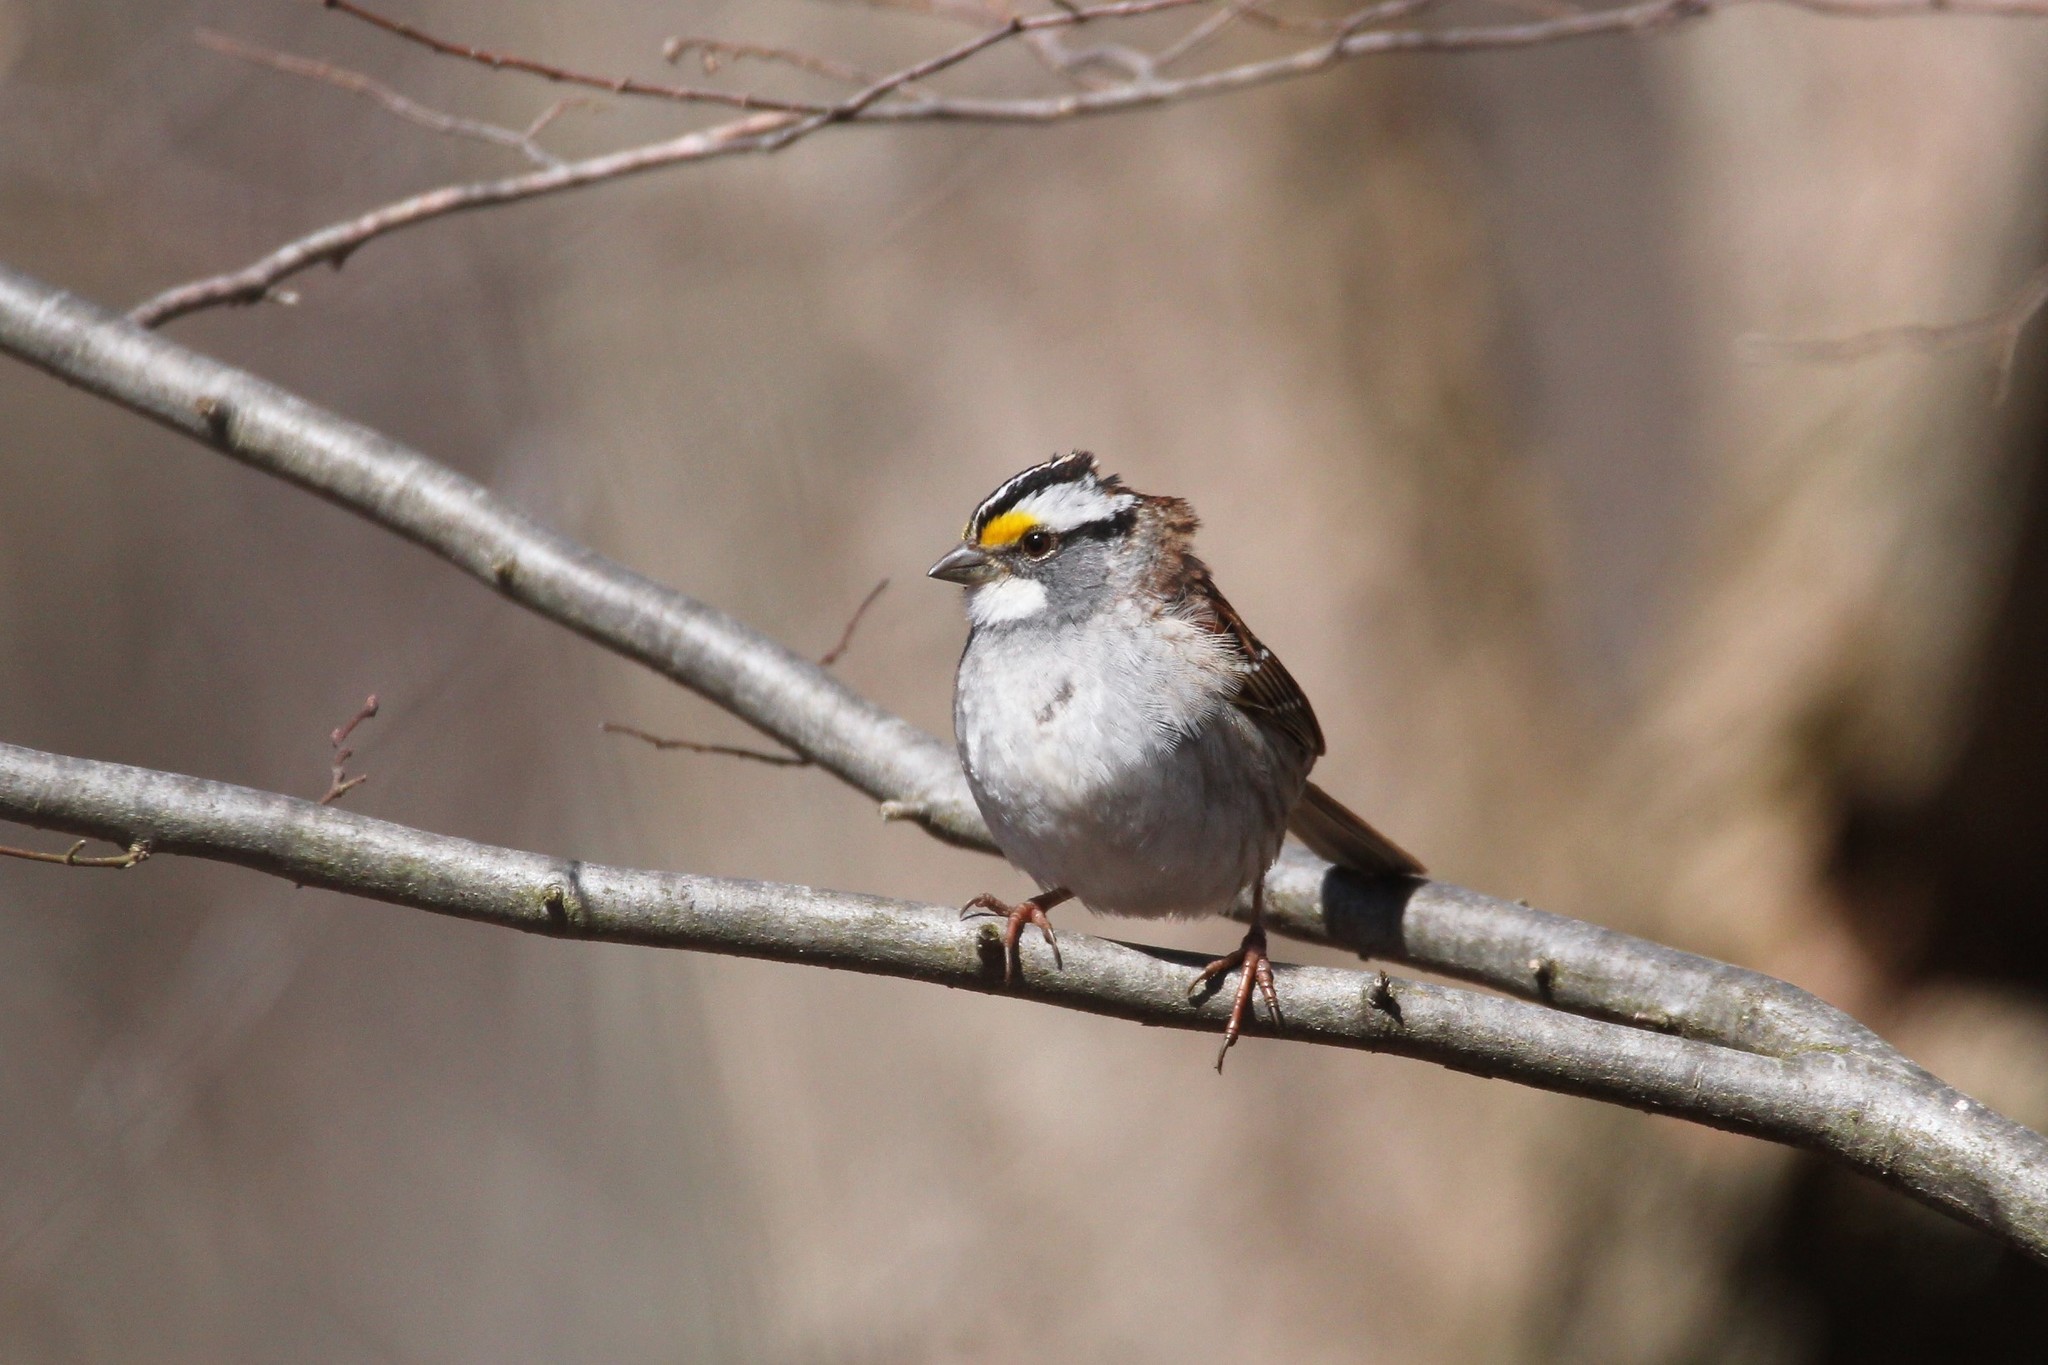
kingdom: Animalia
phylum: Chordata
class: Aves
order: Passeriformes
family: Passerellidae
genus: Zonotrichia
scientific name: Zonotrichia albicollis
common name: White-throated sparrow
